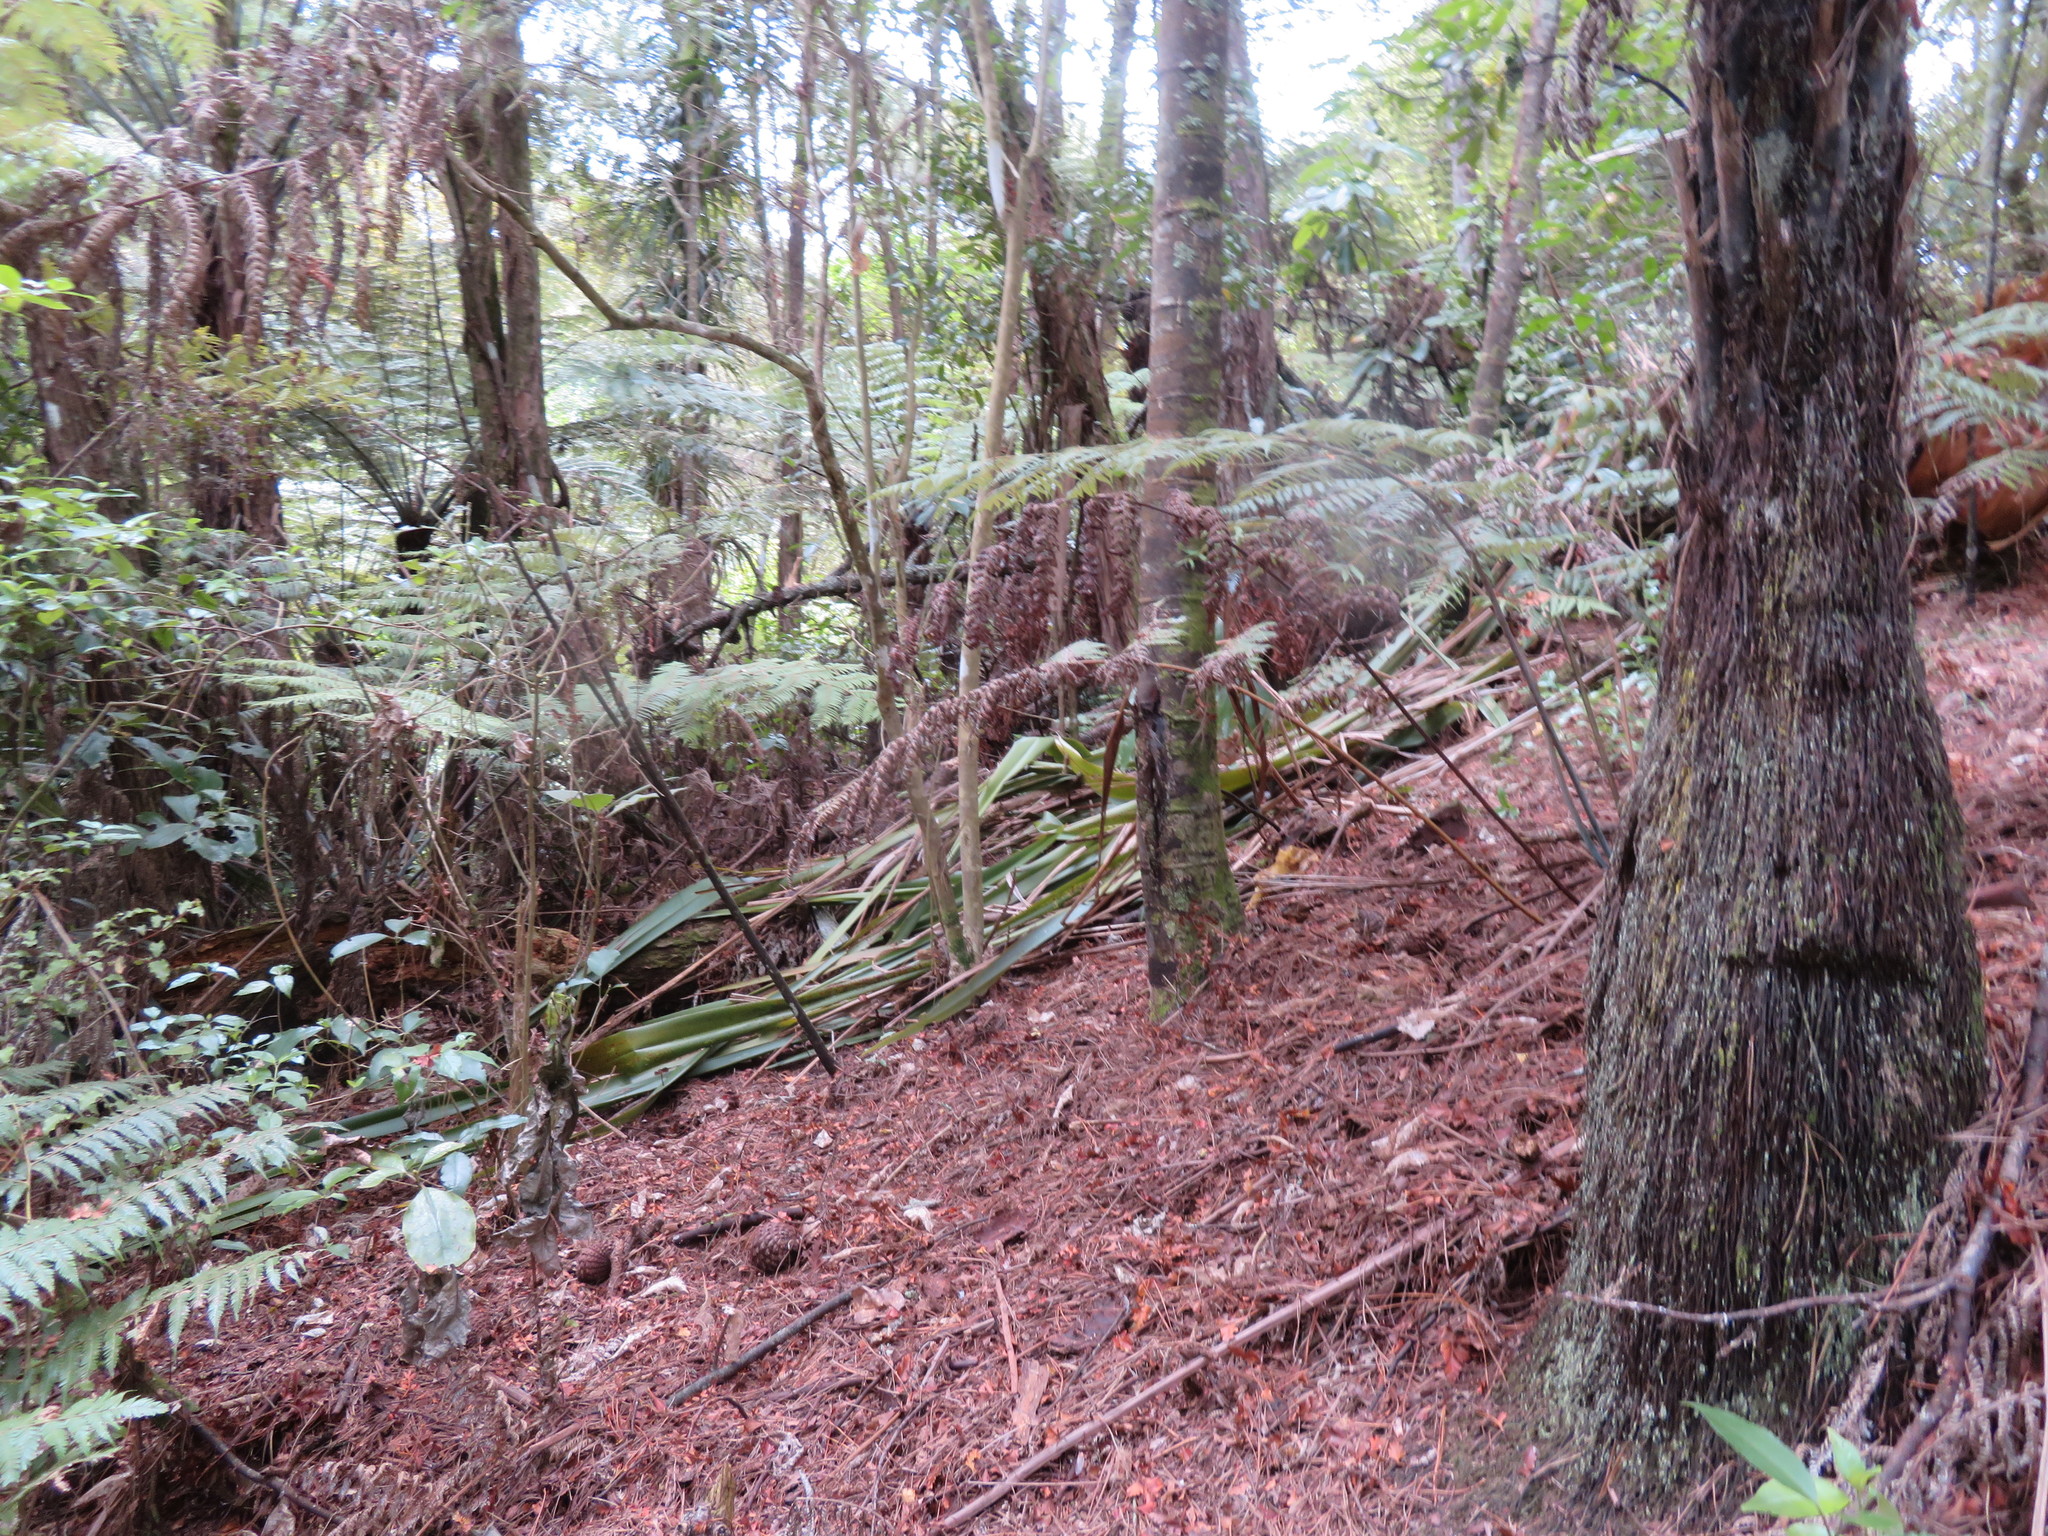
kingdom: Plantae
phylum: Tracheophyta
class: Liliopsida
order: Asparagales
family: Asphodelaceae
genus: Phormium
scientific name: Phormium tenax
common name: New zealand flax
